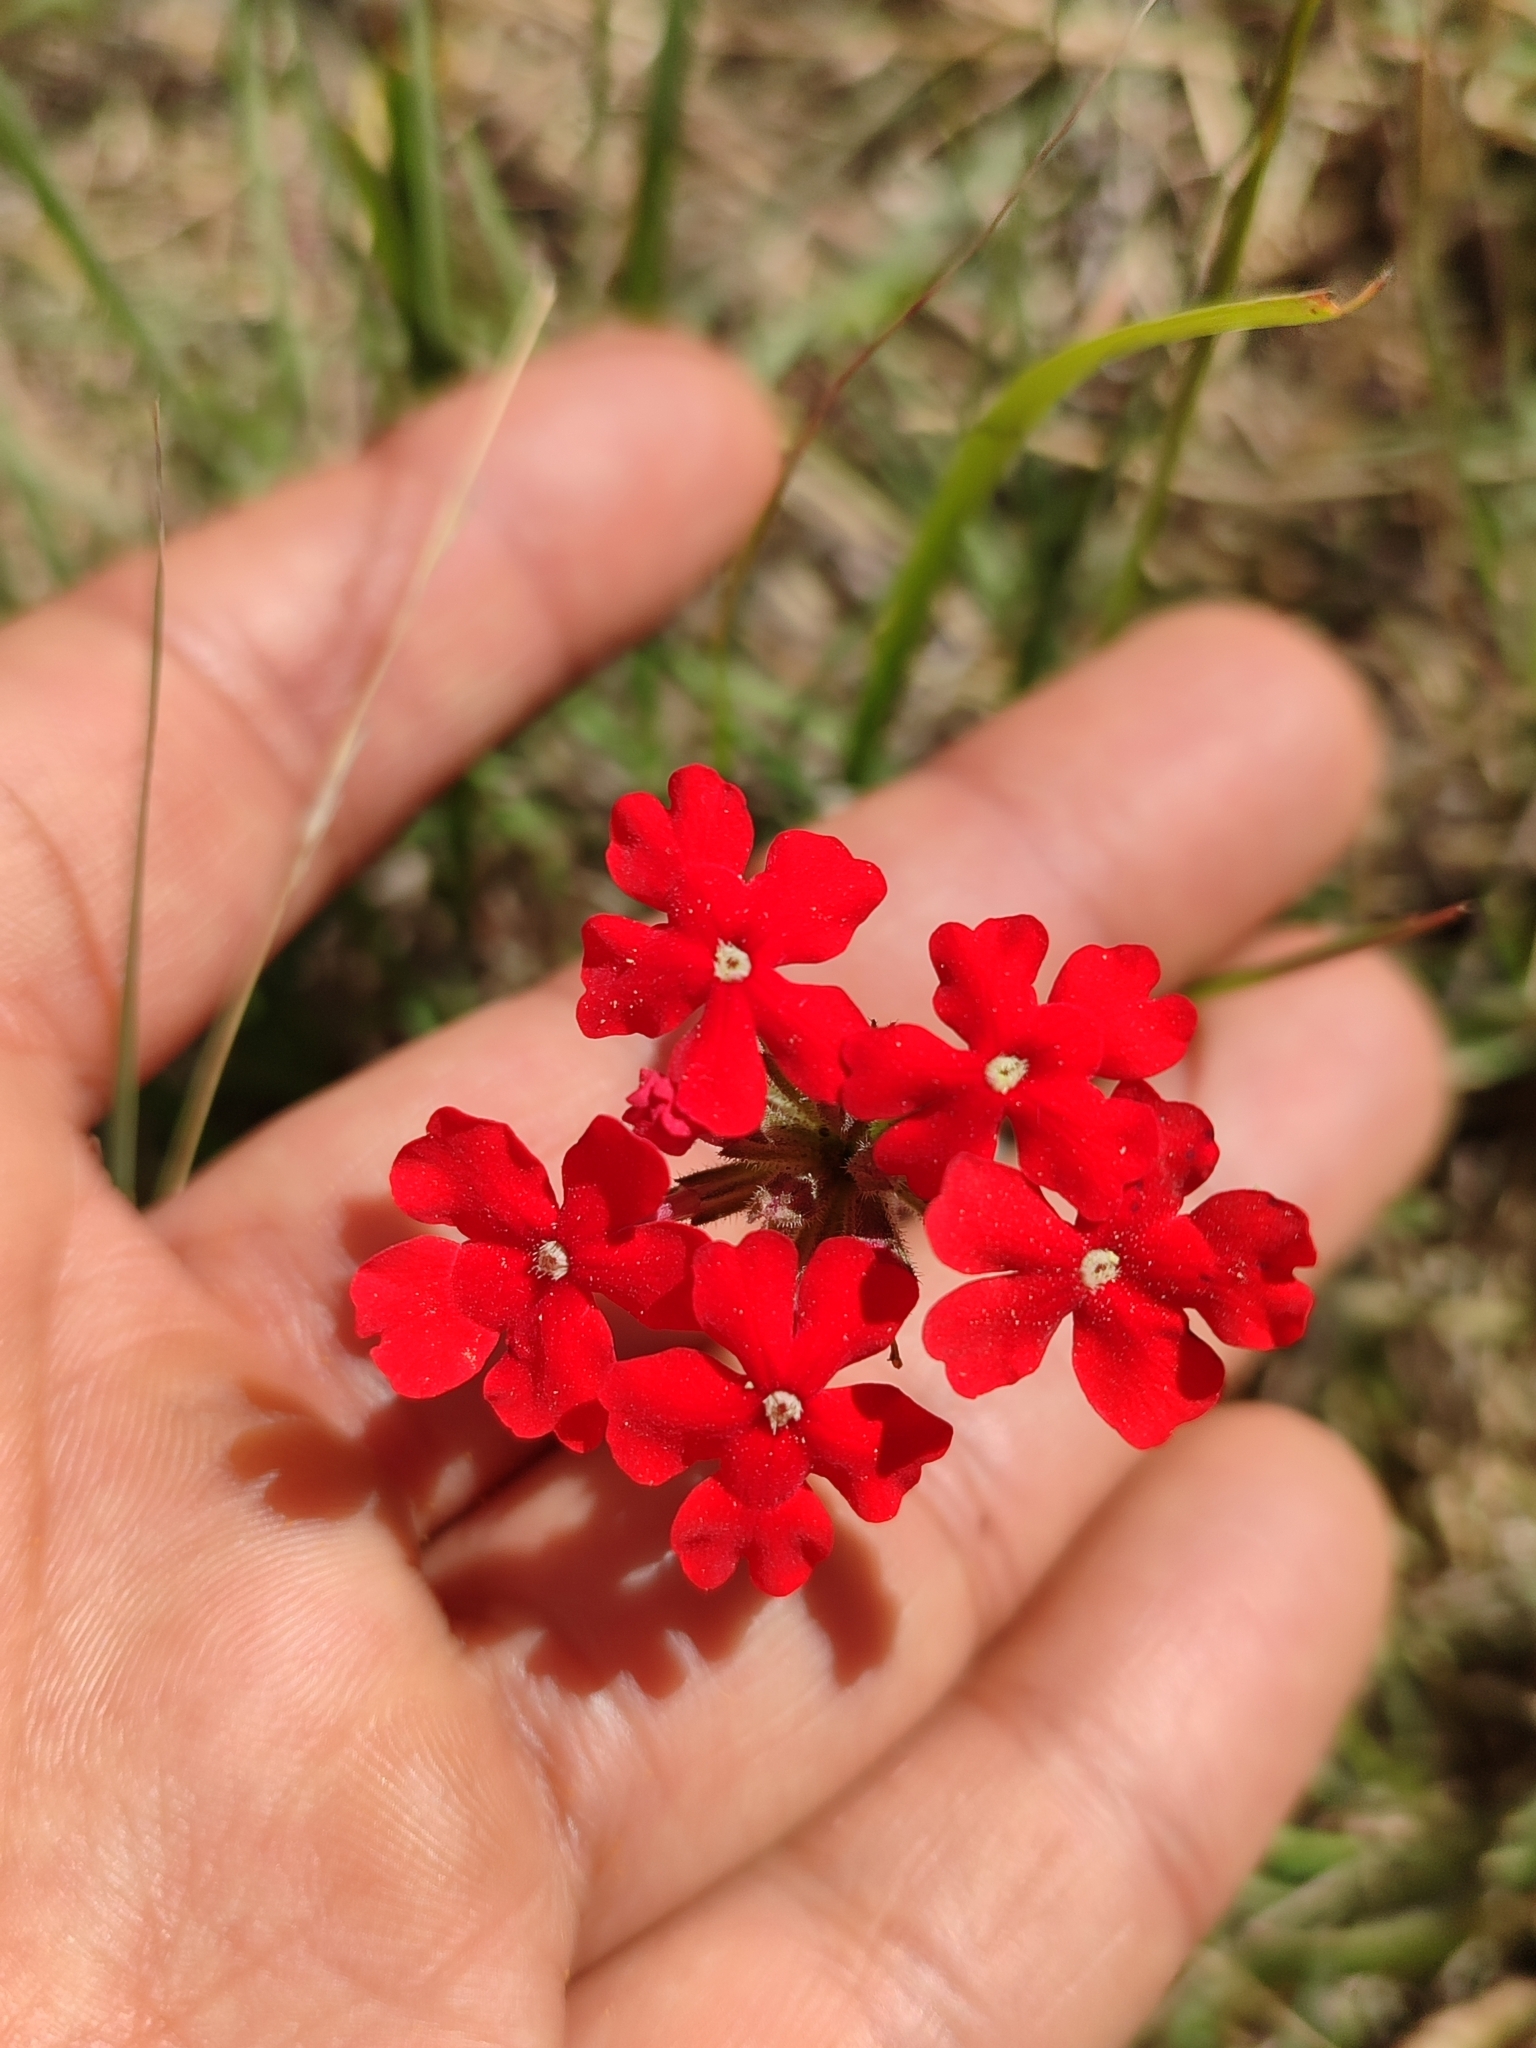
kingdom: Plantae
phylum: Tracheophyta
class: Magnoliopsida
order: Lamiales
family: Verbenaceae
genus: Verbena
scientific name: Verbena peruviana
